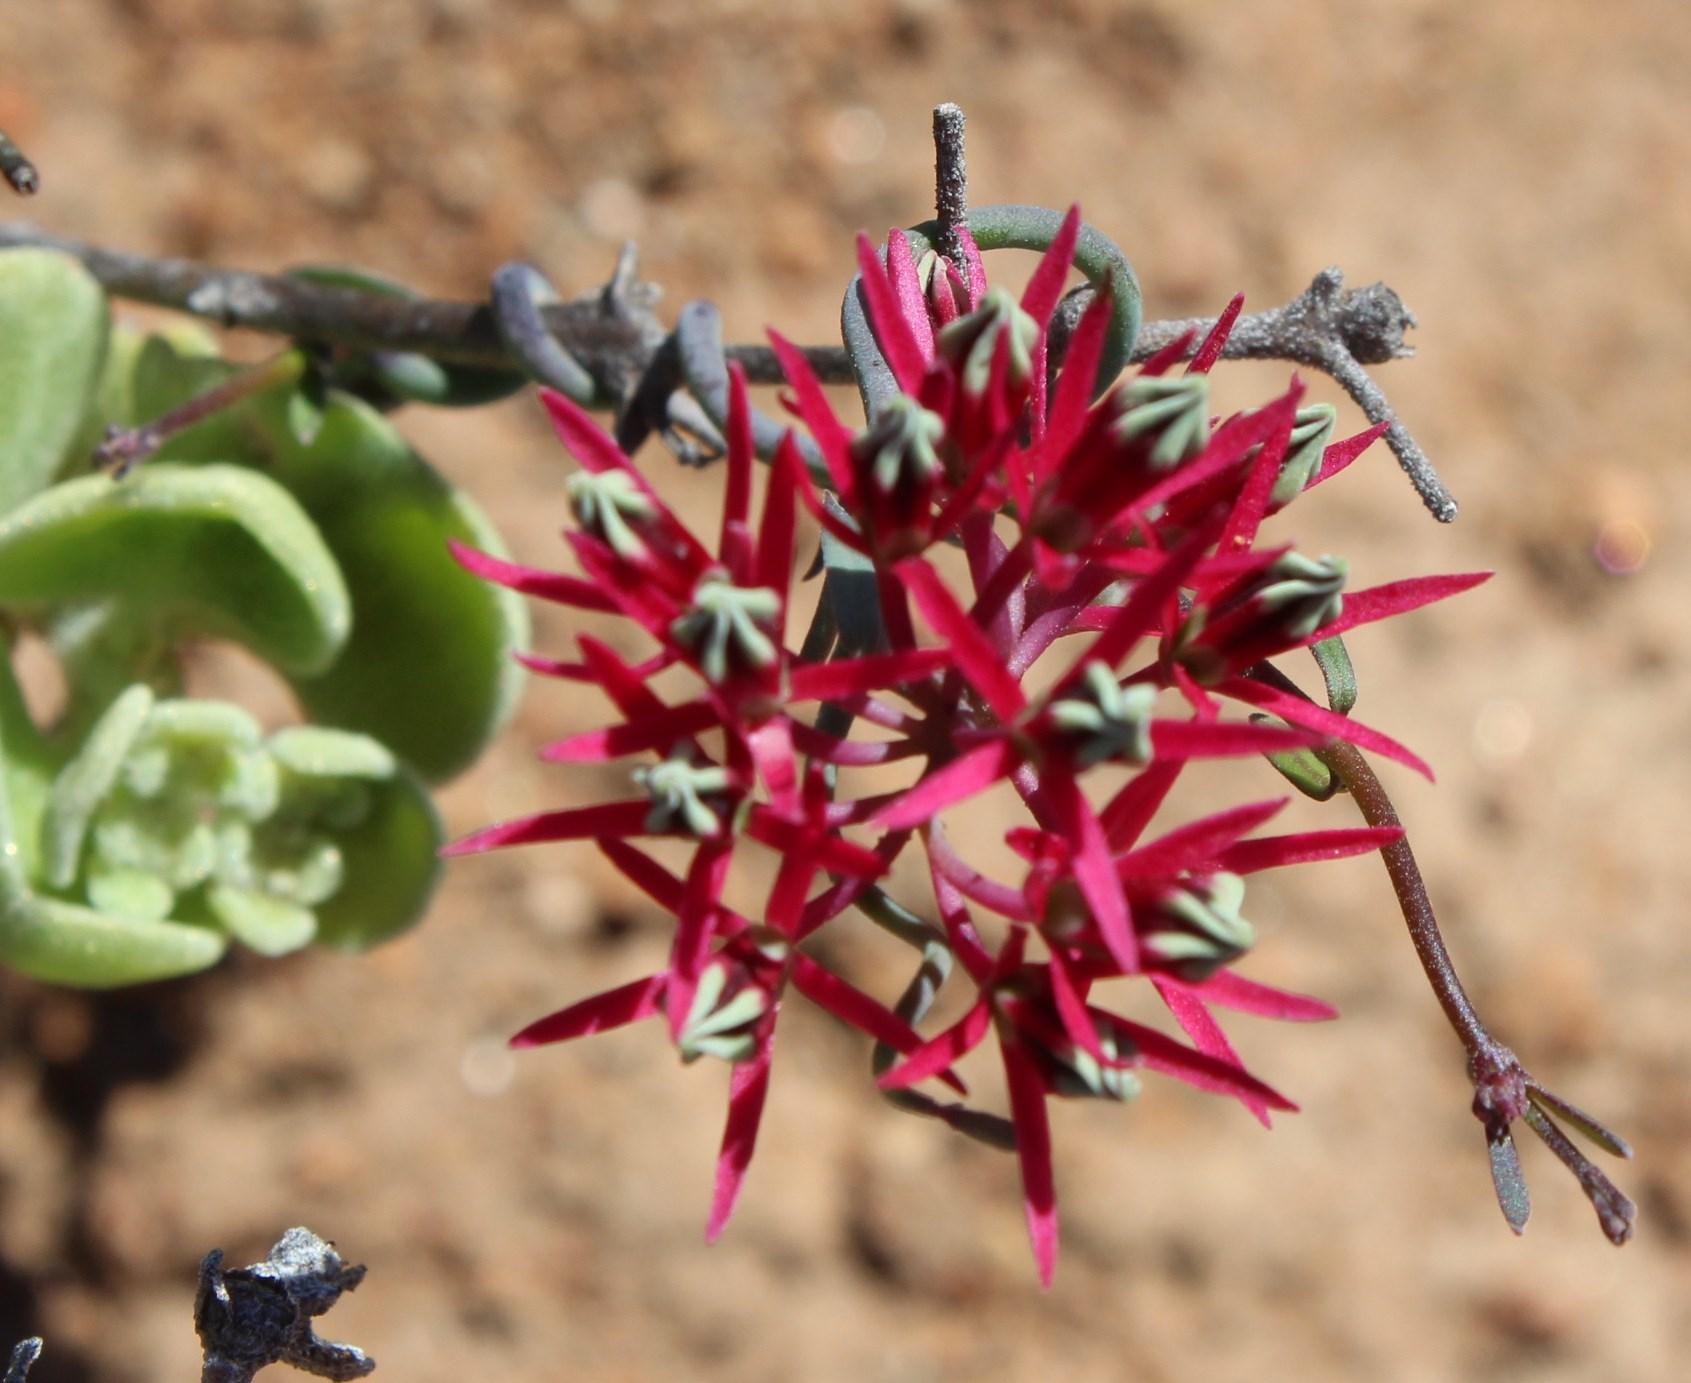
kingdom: Plantae
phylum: Tracheophyta
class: Magnoliopsida
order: Gentianales
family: Apocynaceae
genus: Microloma
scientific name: Microloma calycinum
